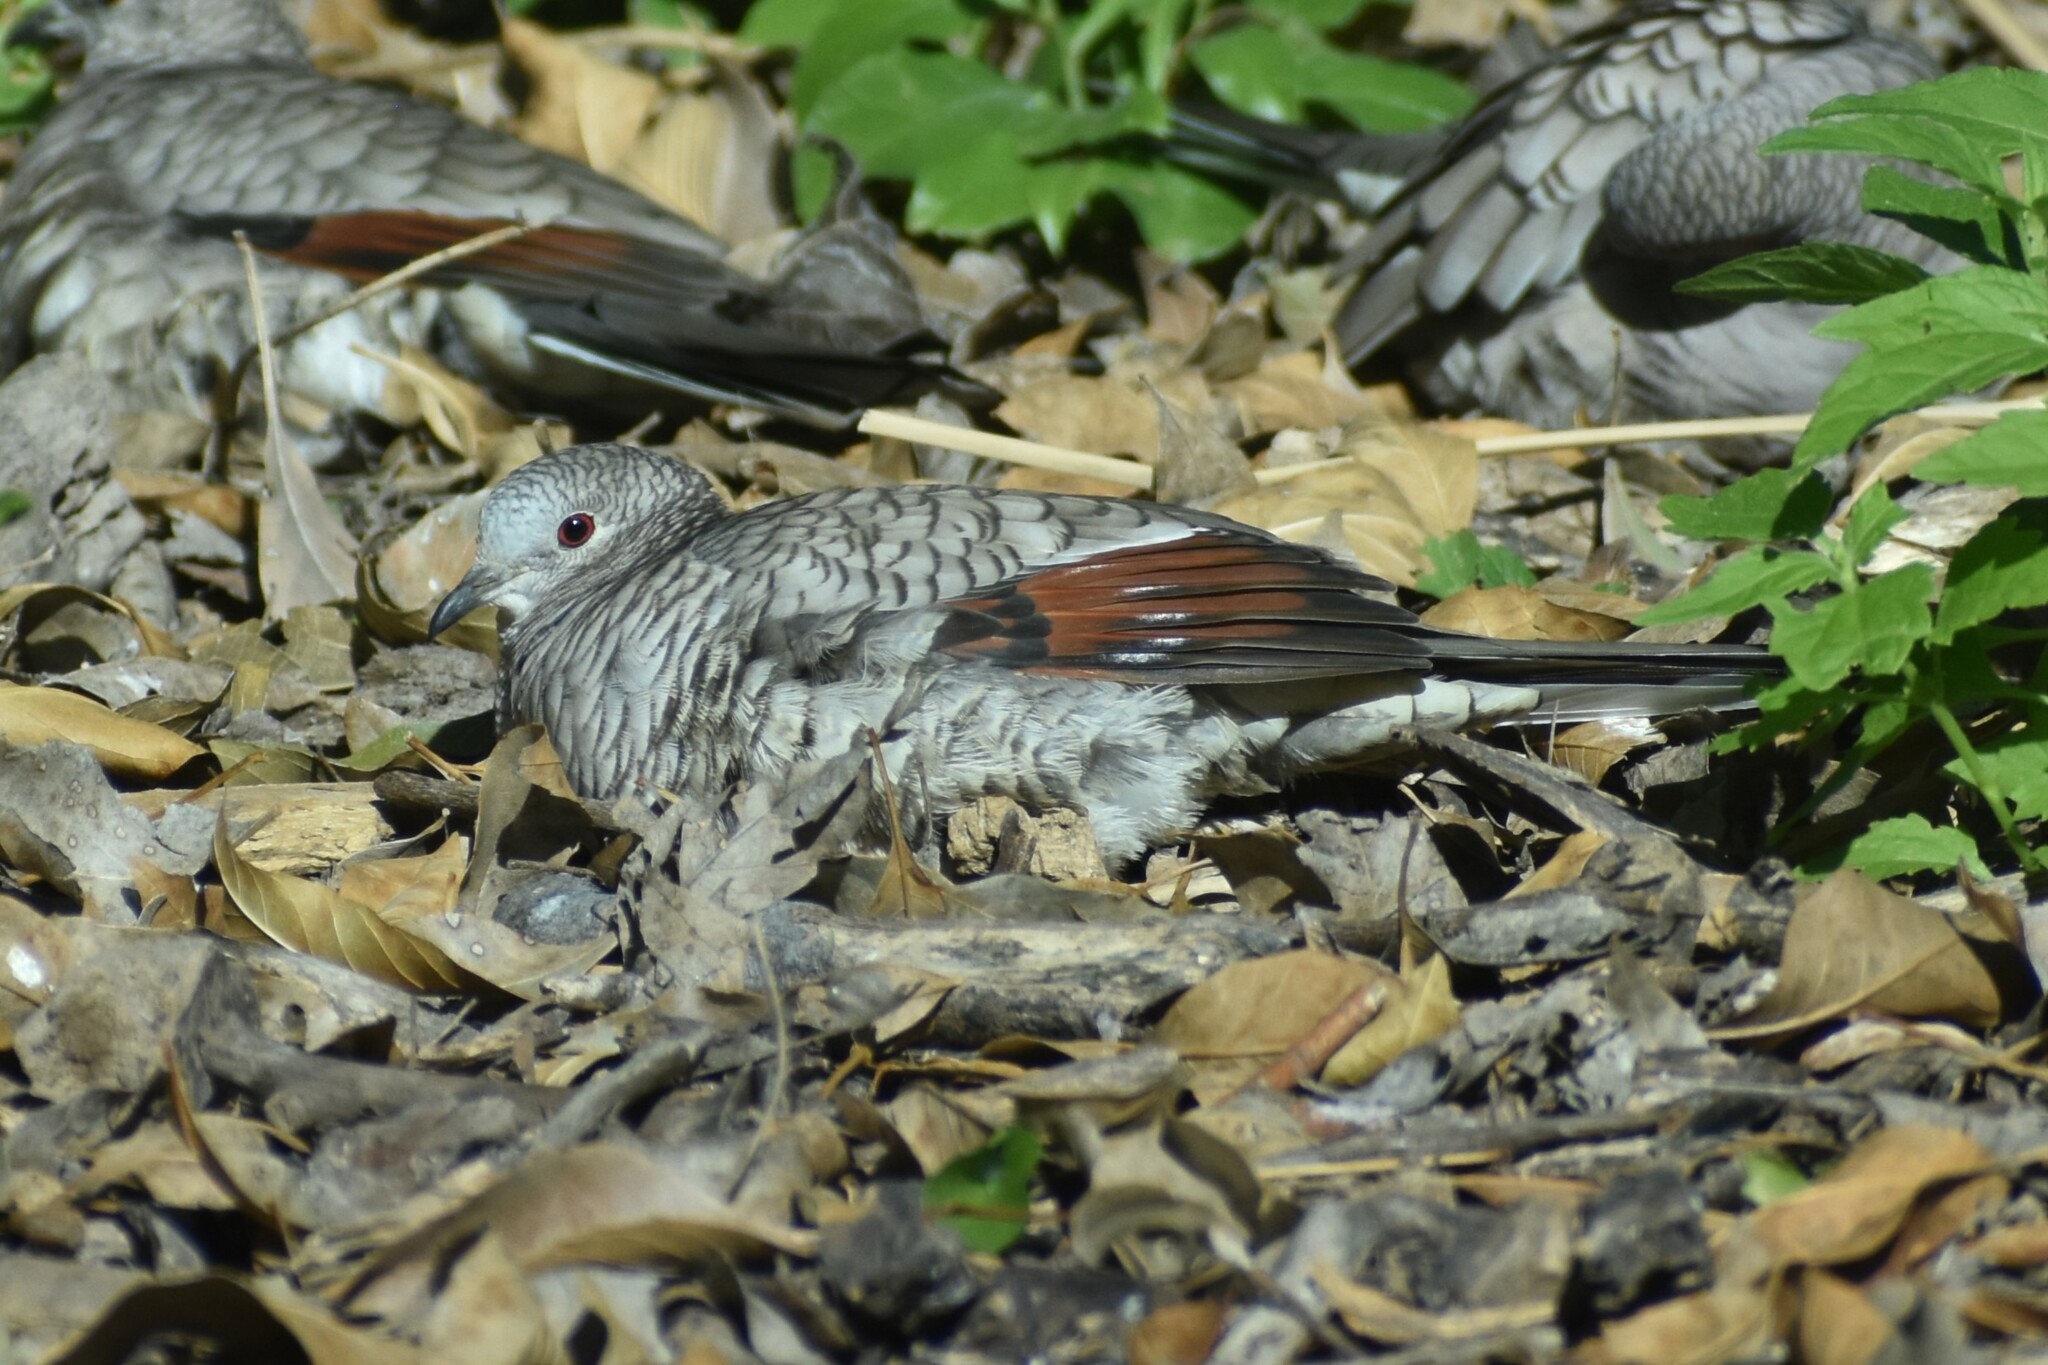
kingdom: Animalia
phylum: Chordata
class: Aves
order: Columbiformes
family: Columbidae
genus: Columbina
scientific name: Columbina inca
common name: Inca dove
